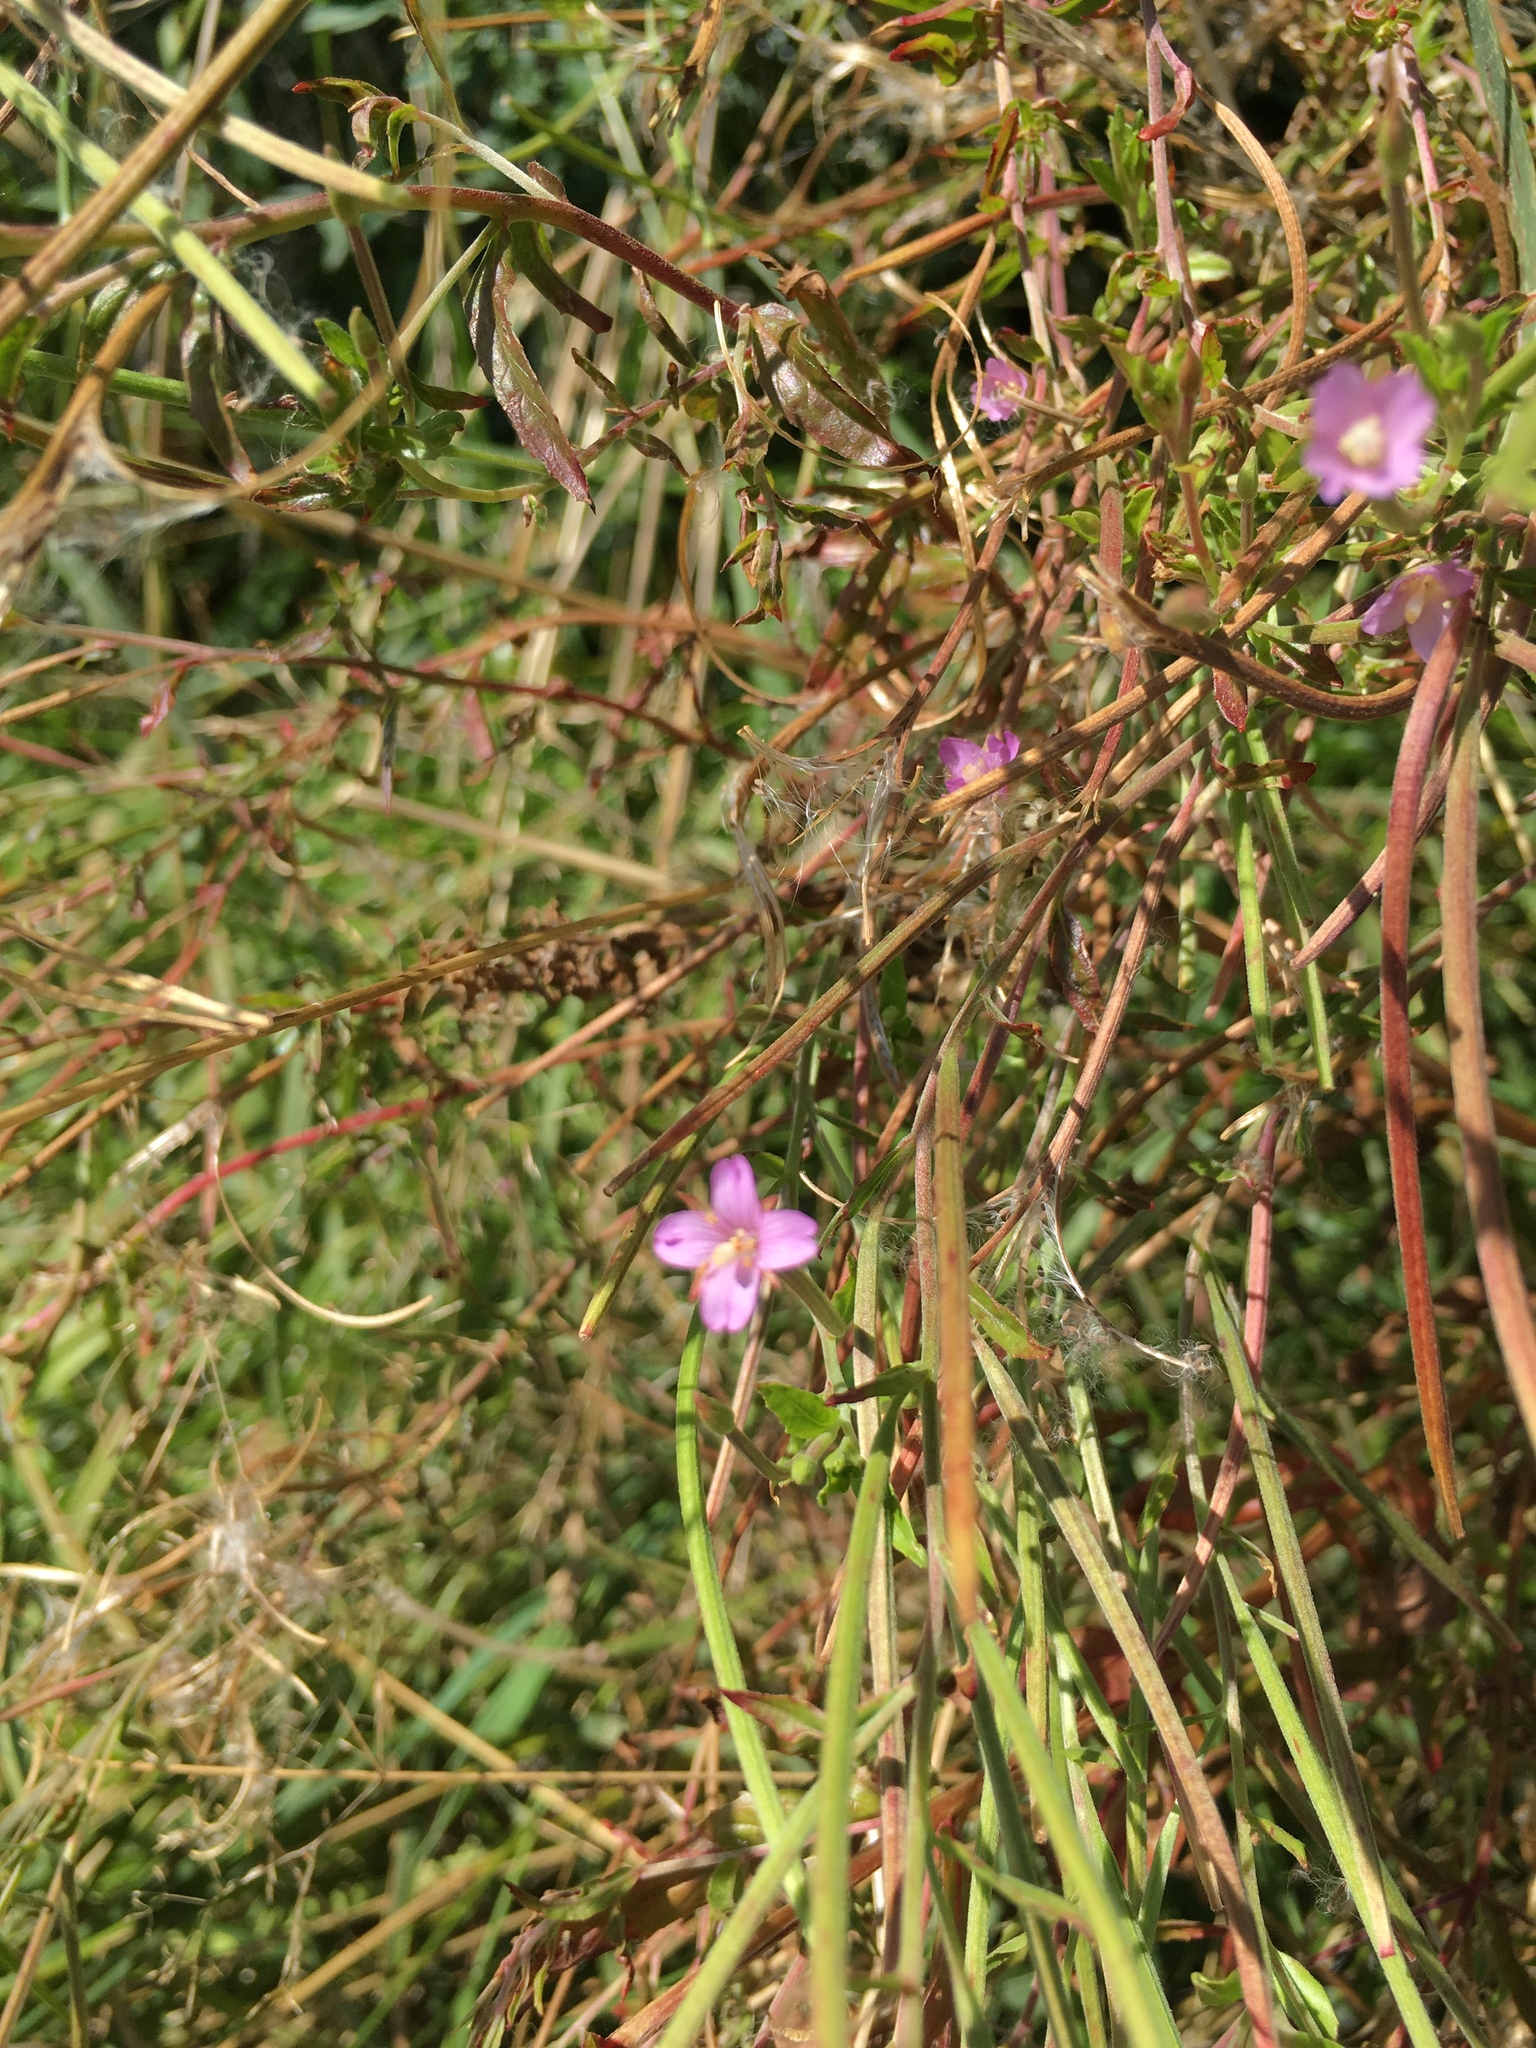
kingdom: Plantae
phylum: Tracheophyta
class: Magnoliopsida
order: Myrtales
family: Onagraceae
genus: Epilobium
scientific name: Epilobium
